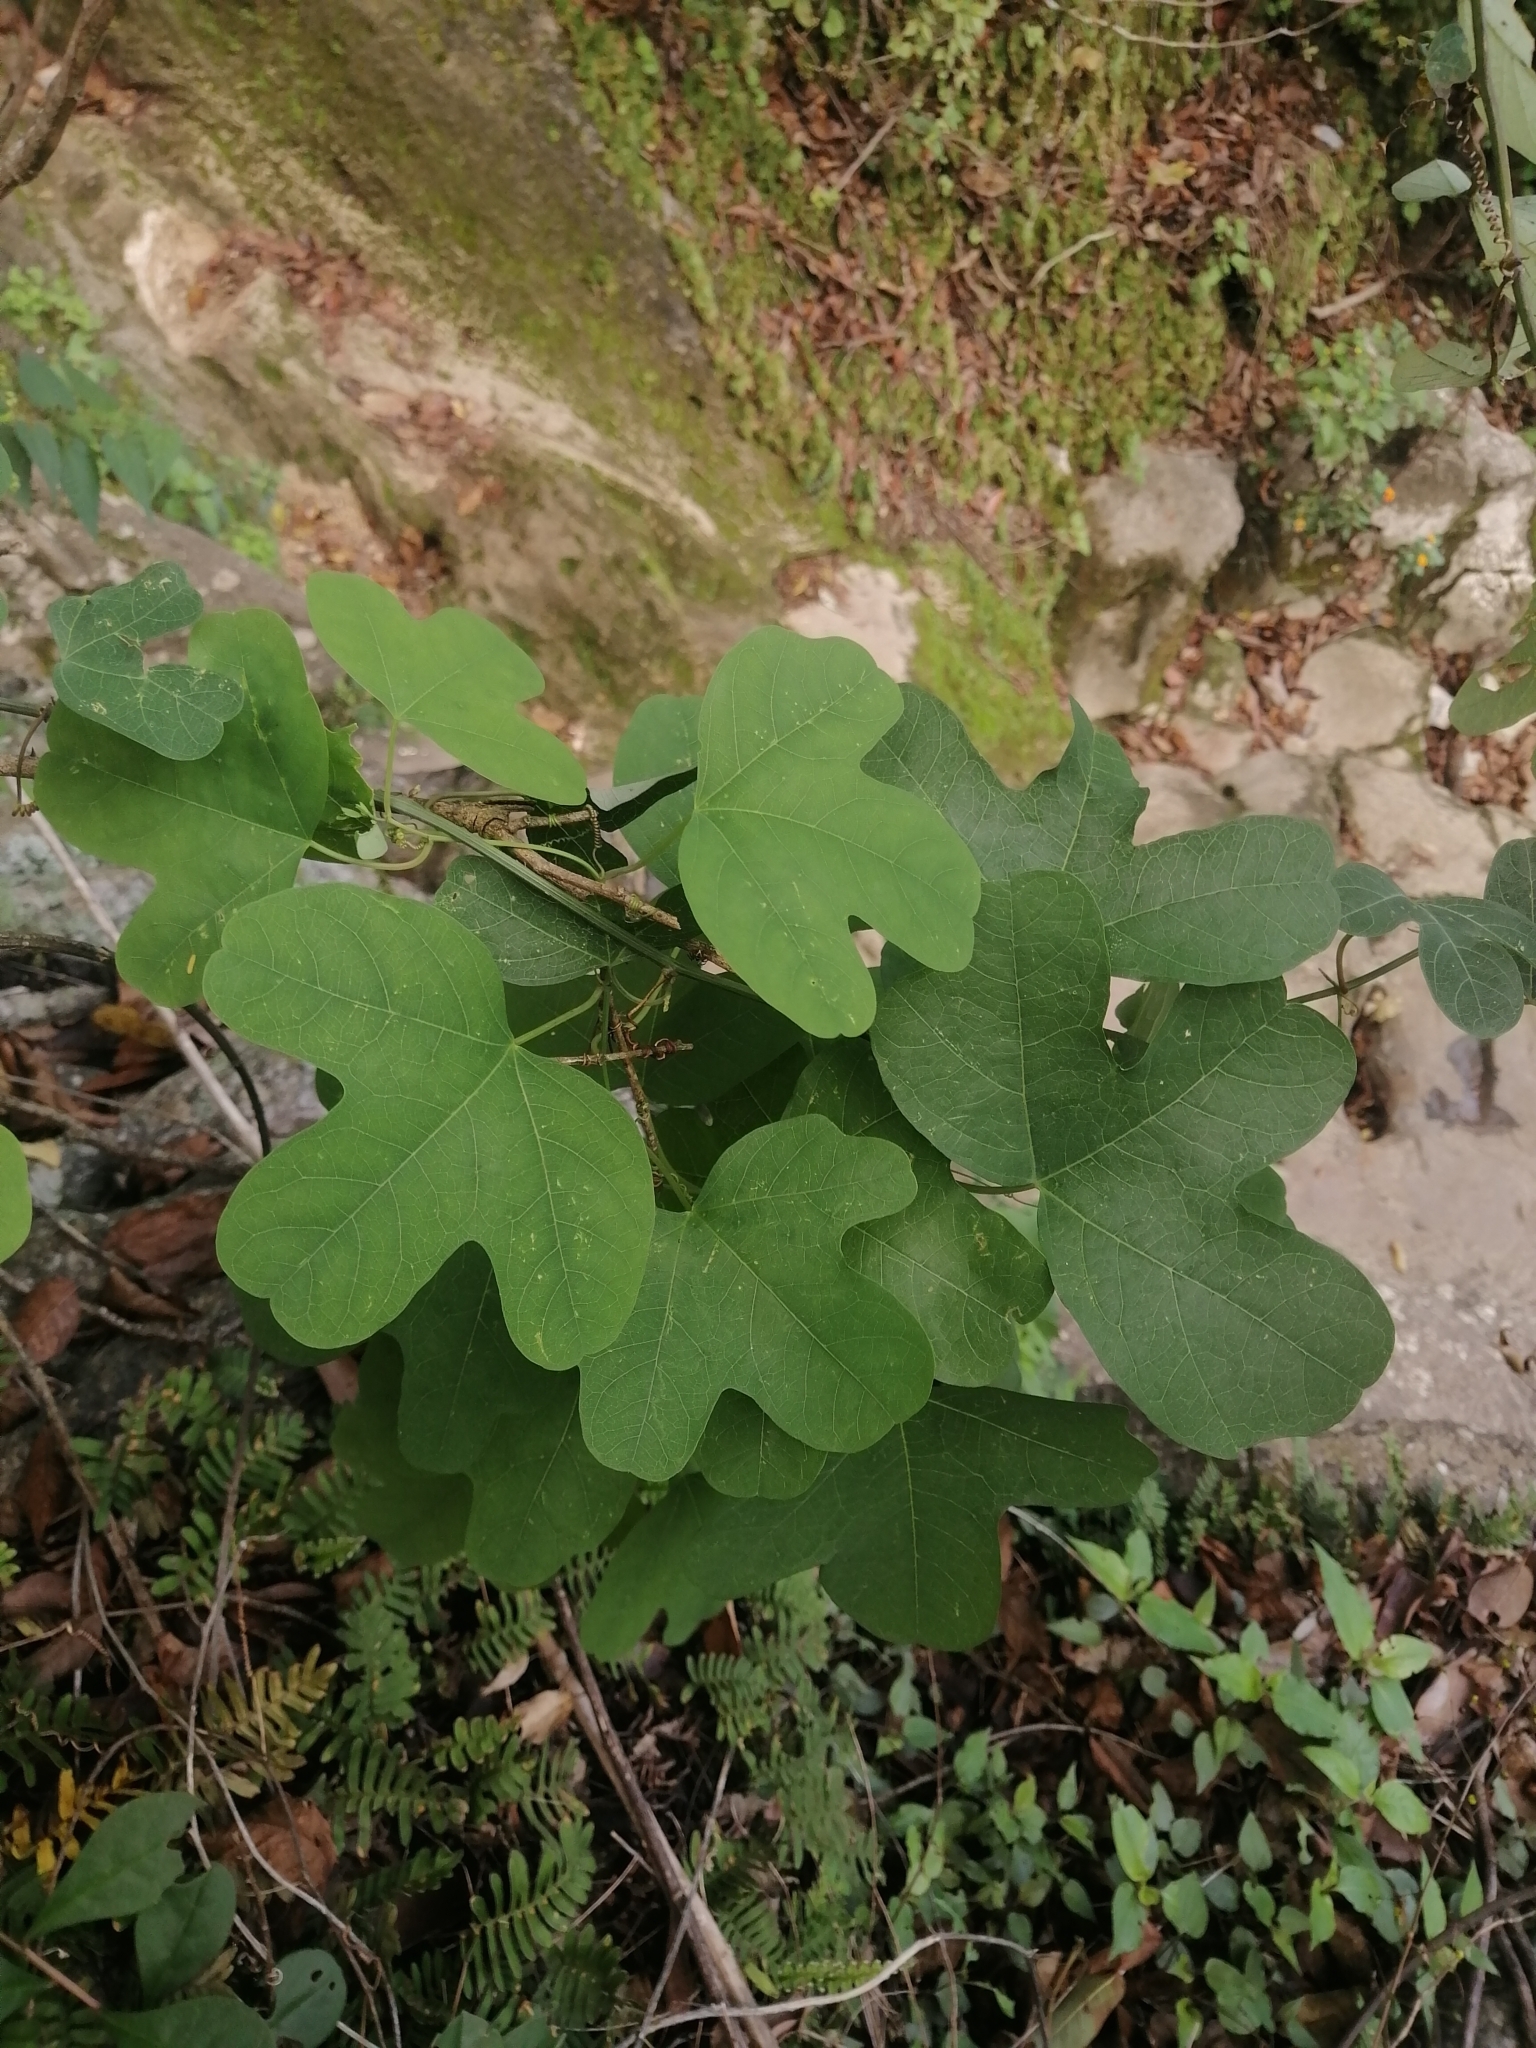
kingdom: Plantae
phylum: Tracheophyta
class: Magnoliopsida
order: Malpighiales
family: Passifloraceae
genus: Passiflora
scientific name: Passiflora affinis
